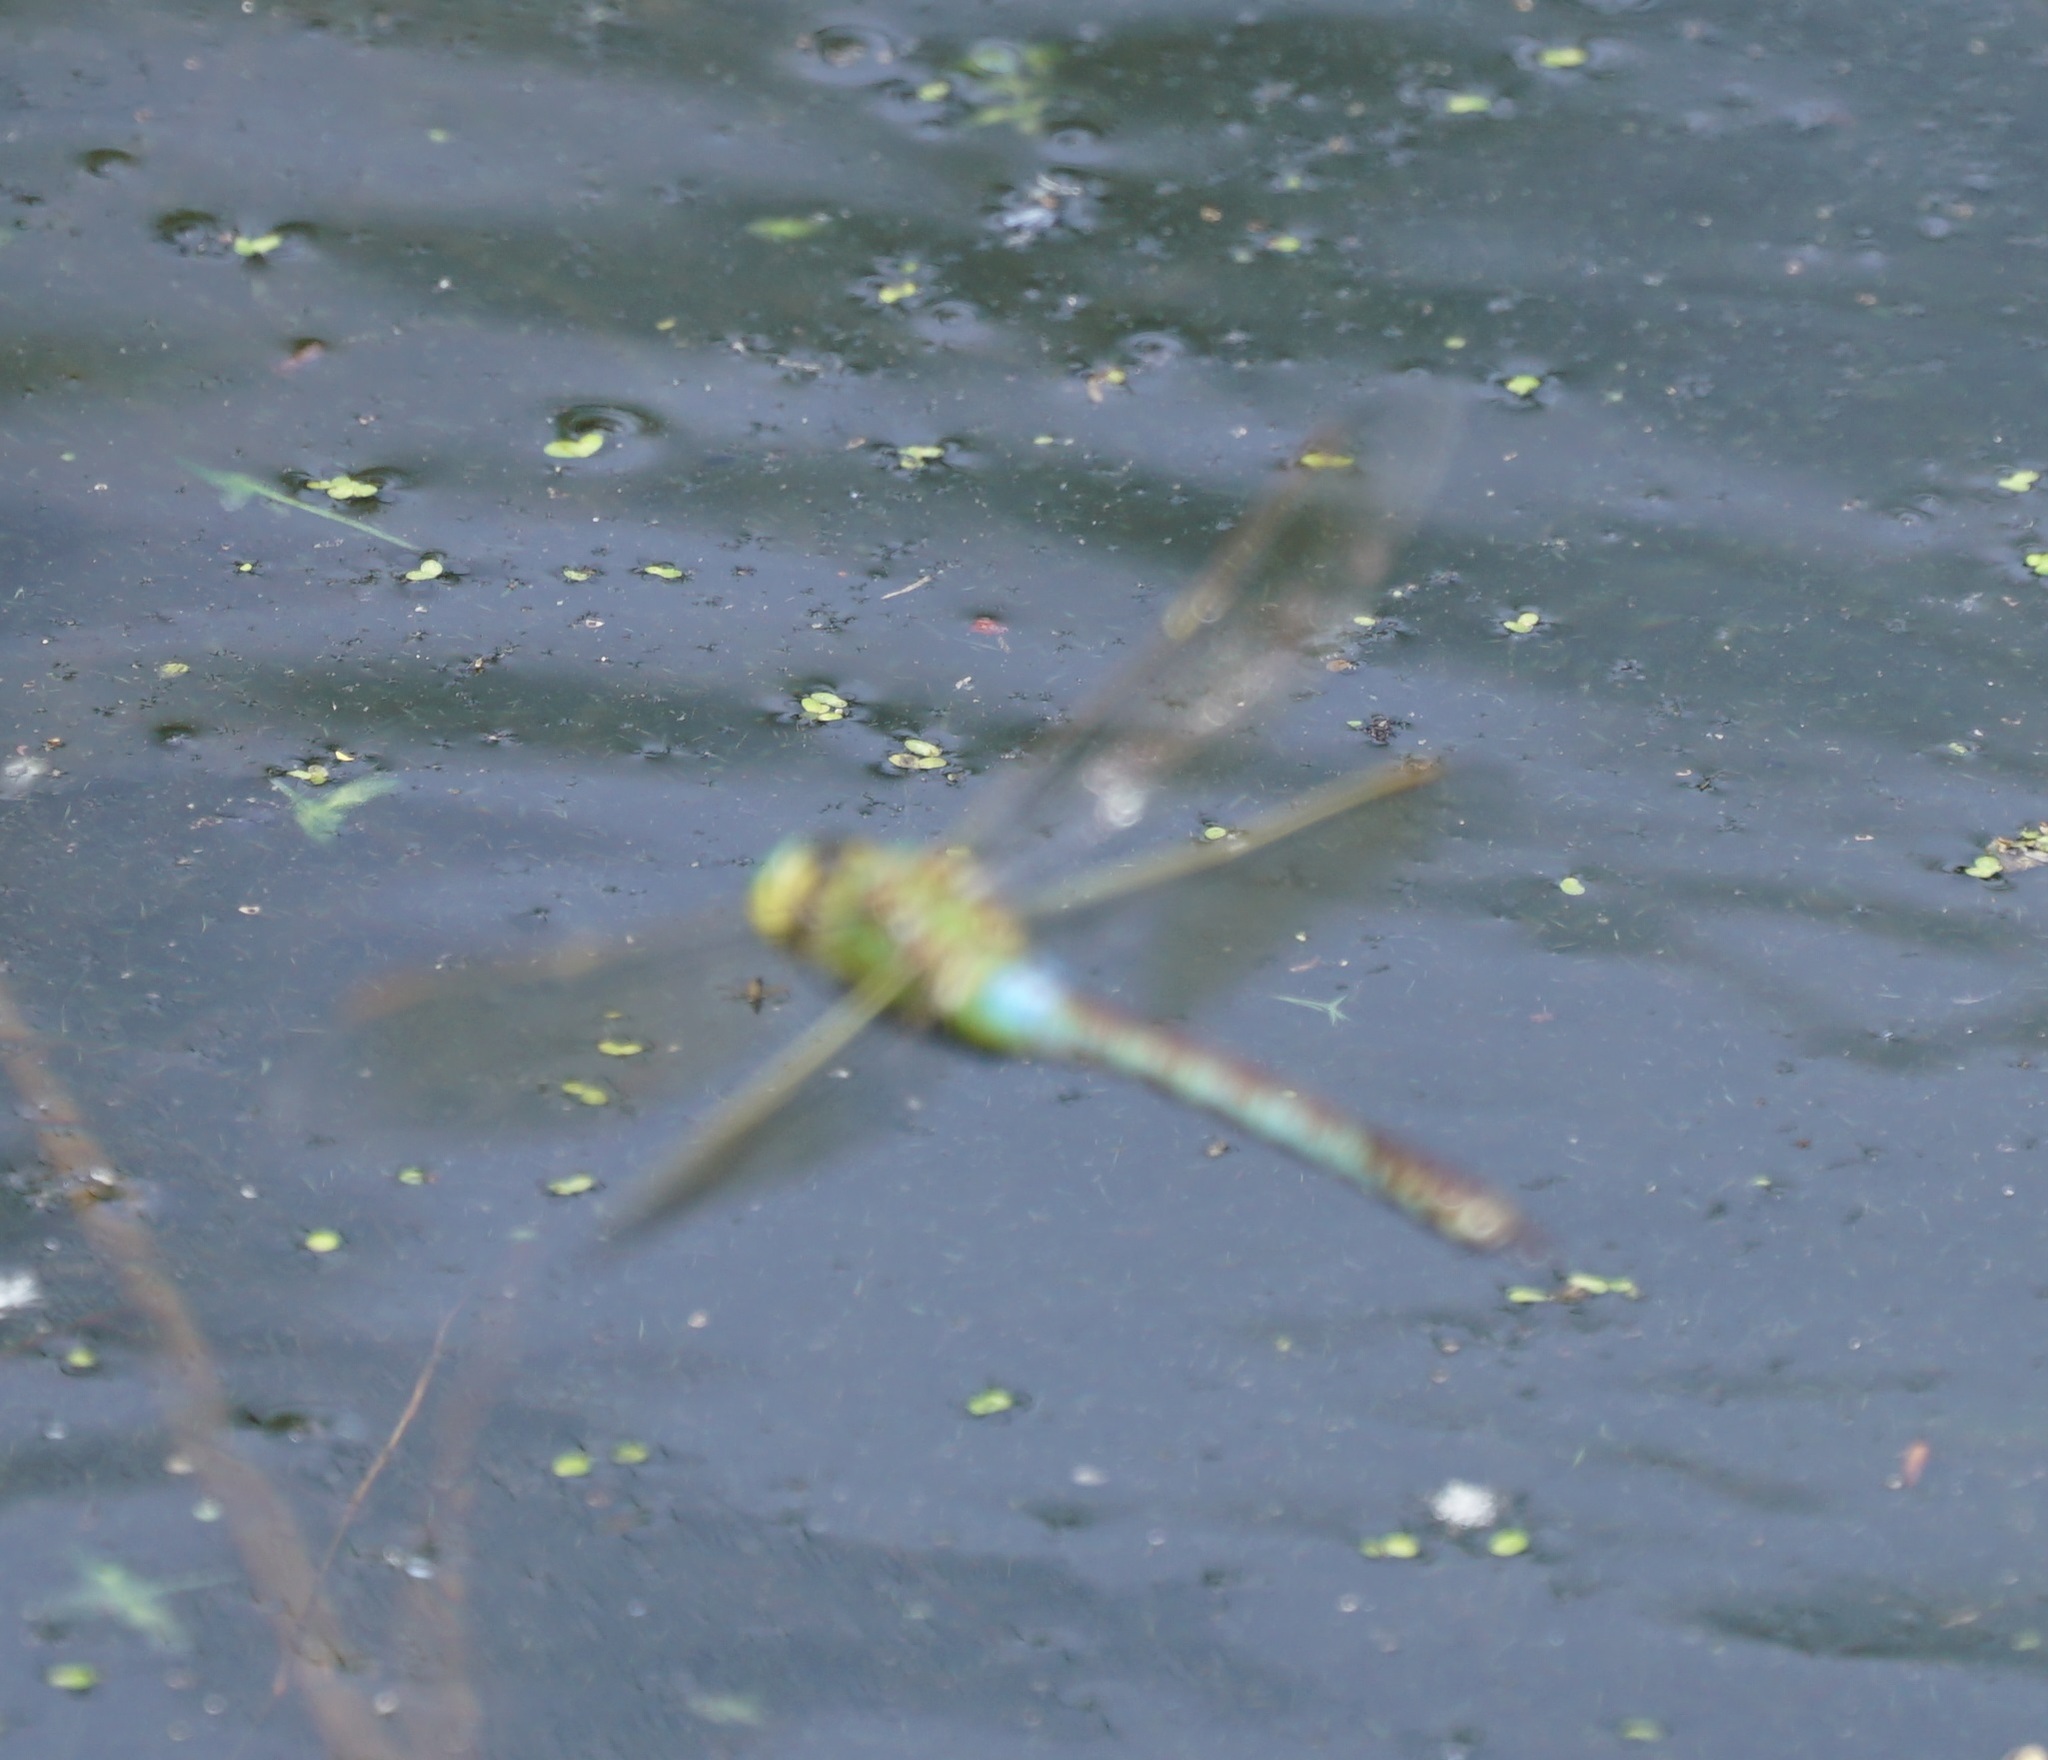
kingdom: Animalia
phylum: Arthropoda
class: Insecta
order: Odonata
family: Aeshnidae
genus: Anax
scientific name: Anax imperator
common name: Emperor dragonfly
